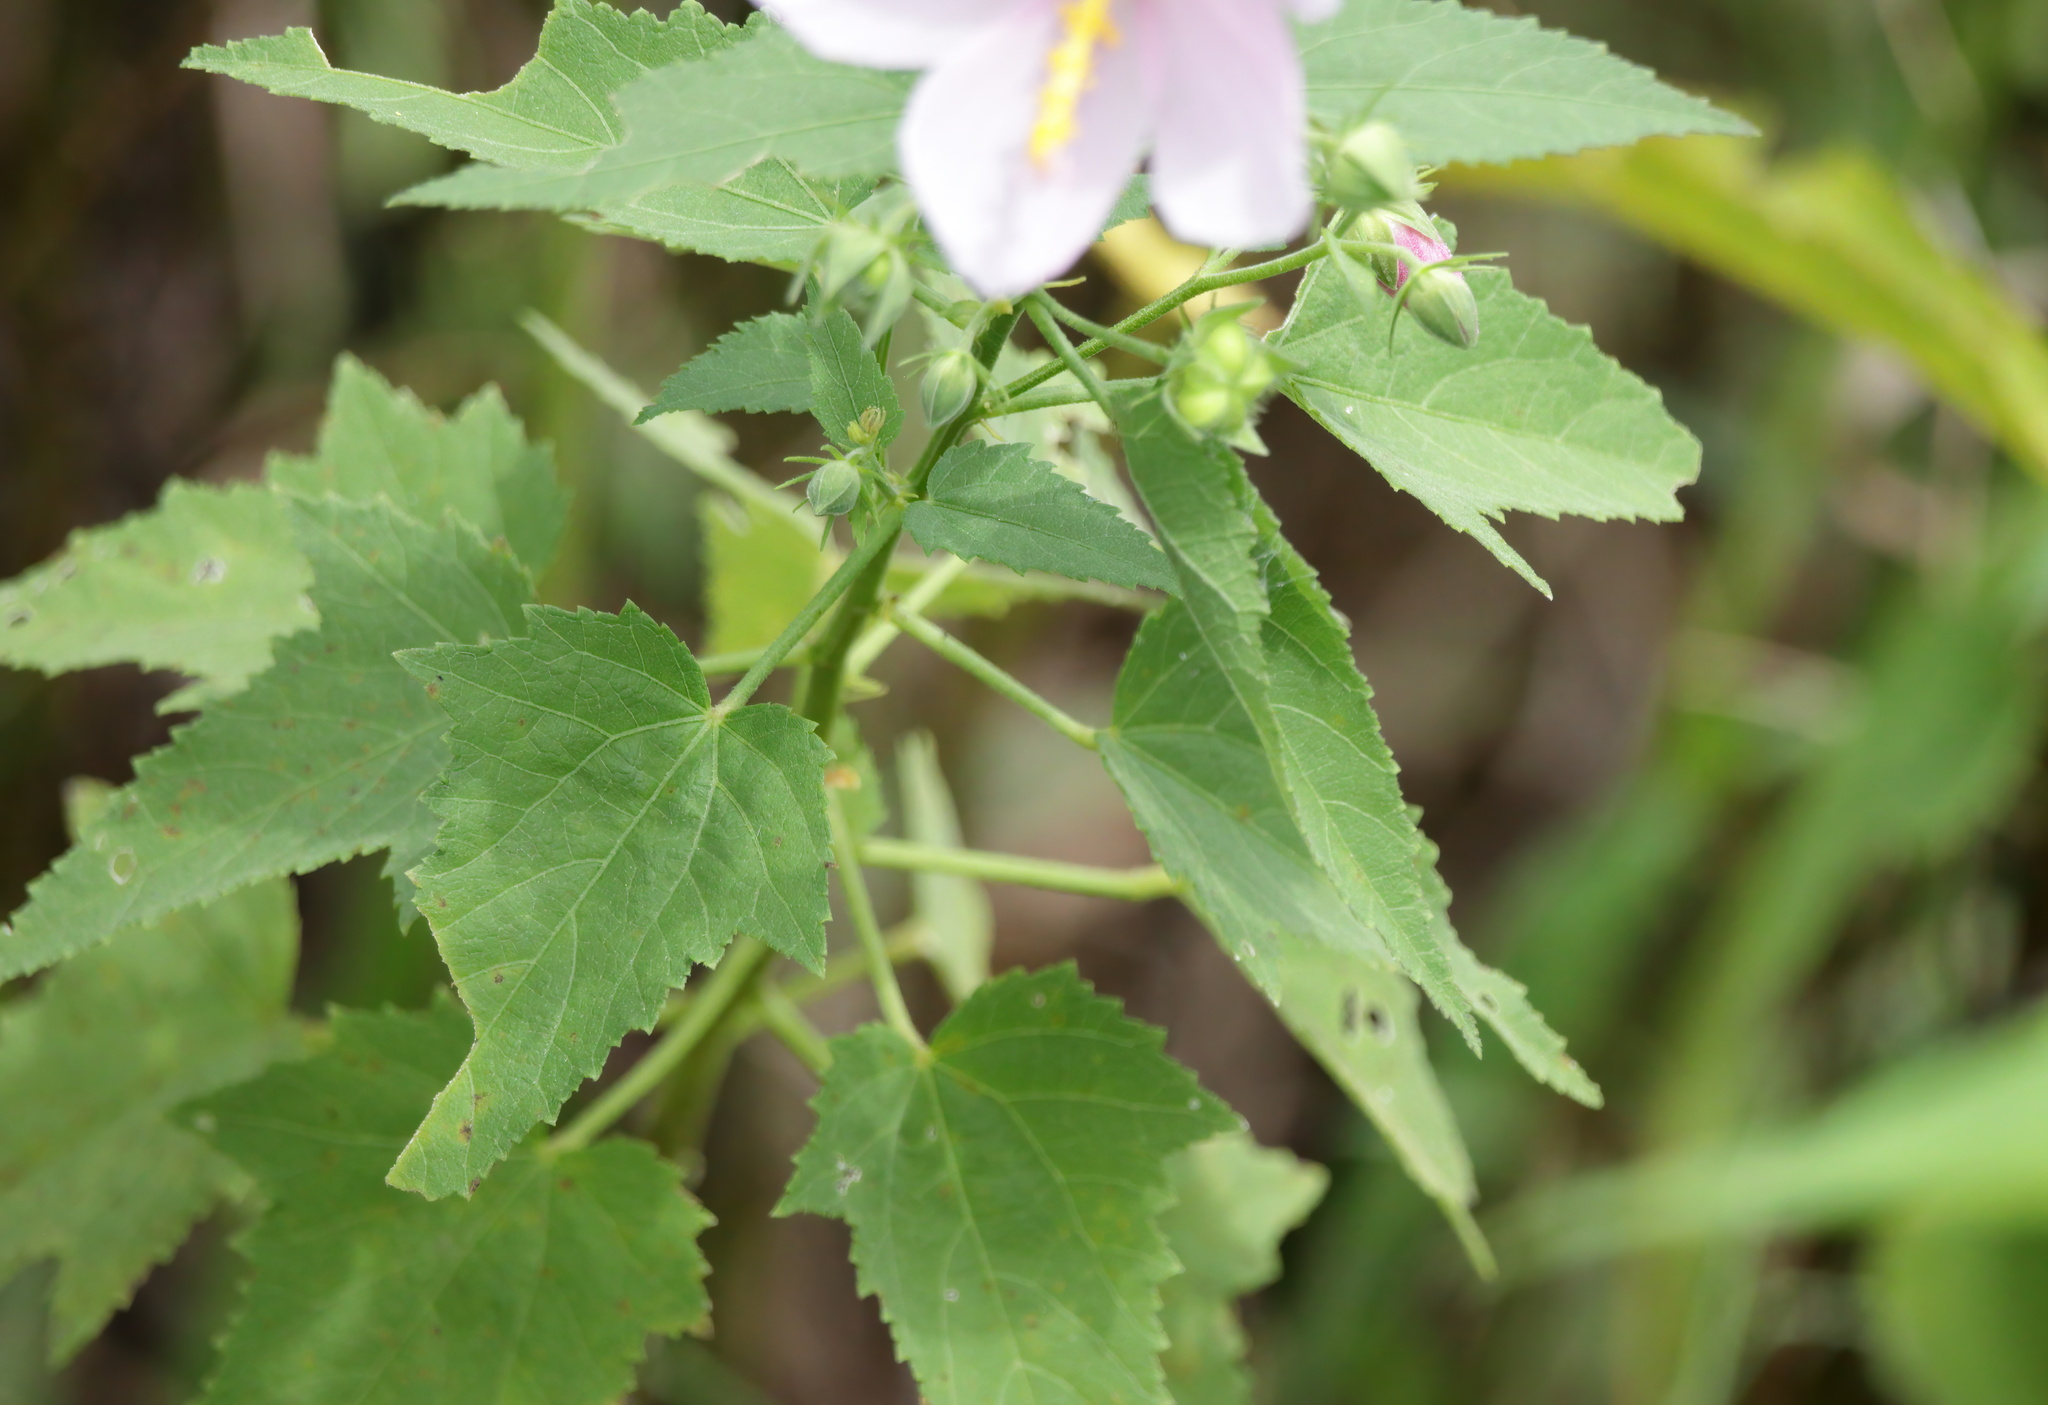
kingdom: Plantae
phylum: Tracheophyta
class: Magnoliopsida
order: Malvales
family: Malvaceae
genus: Kosteletzkya
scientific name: Kosteletzkya pentacarpos
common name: Virginia saltmarsh mallow
